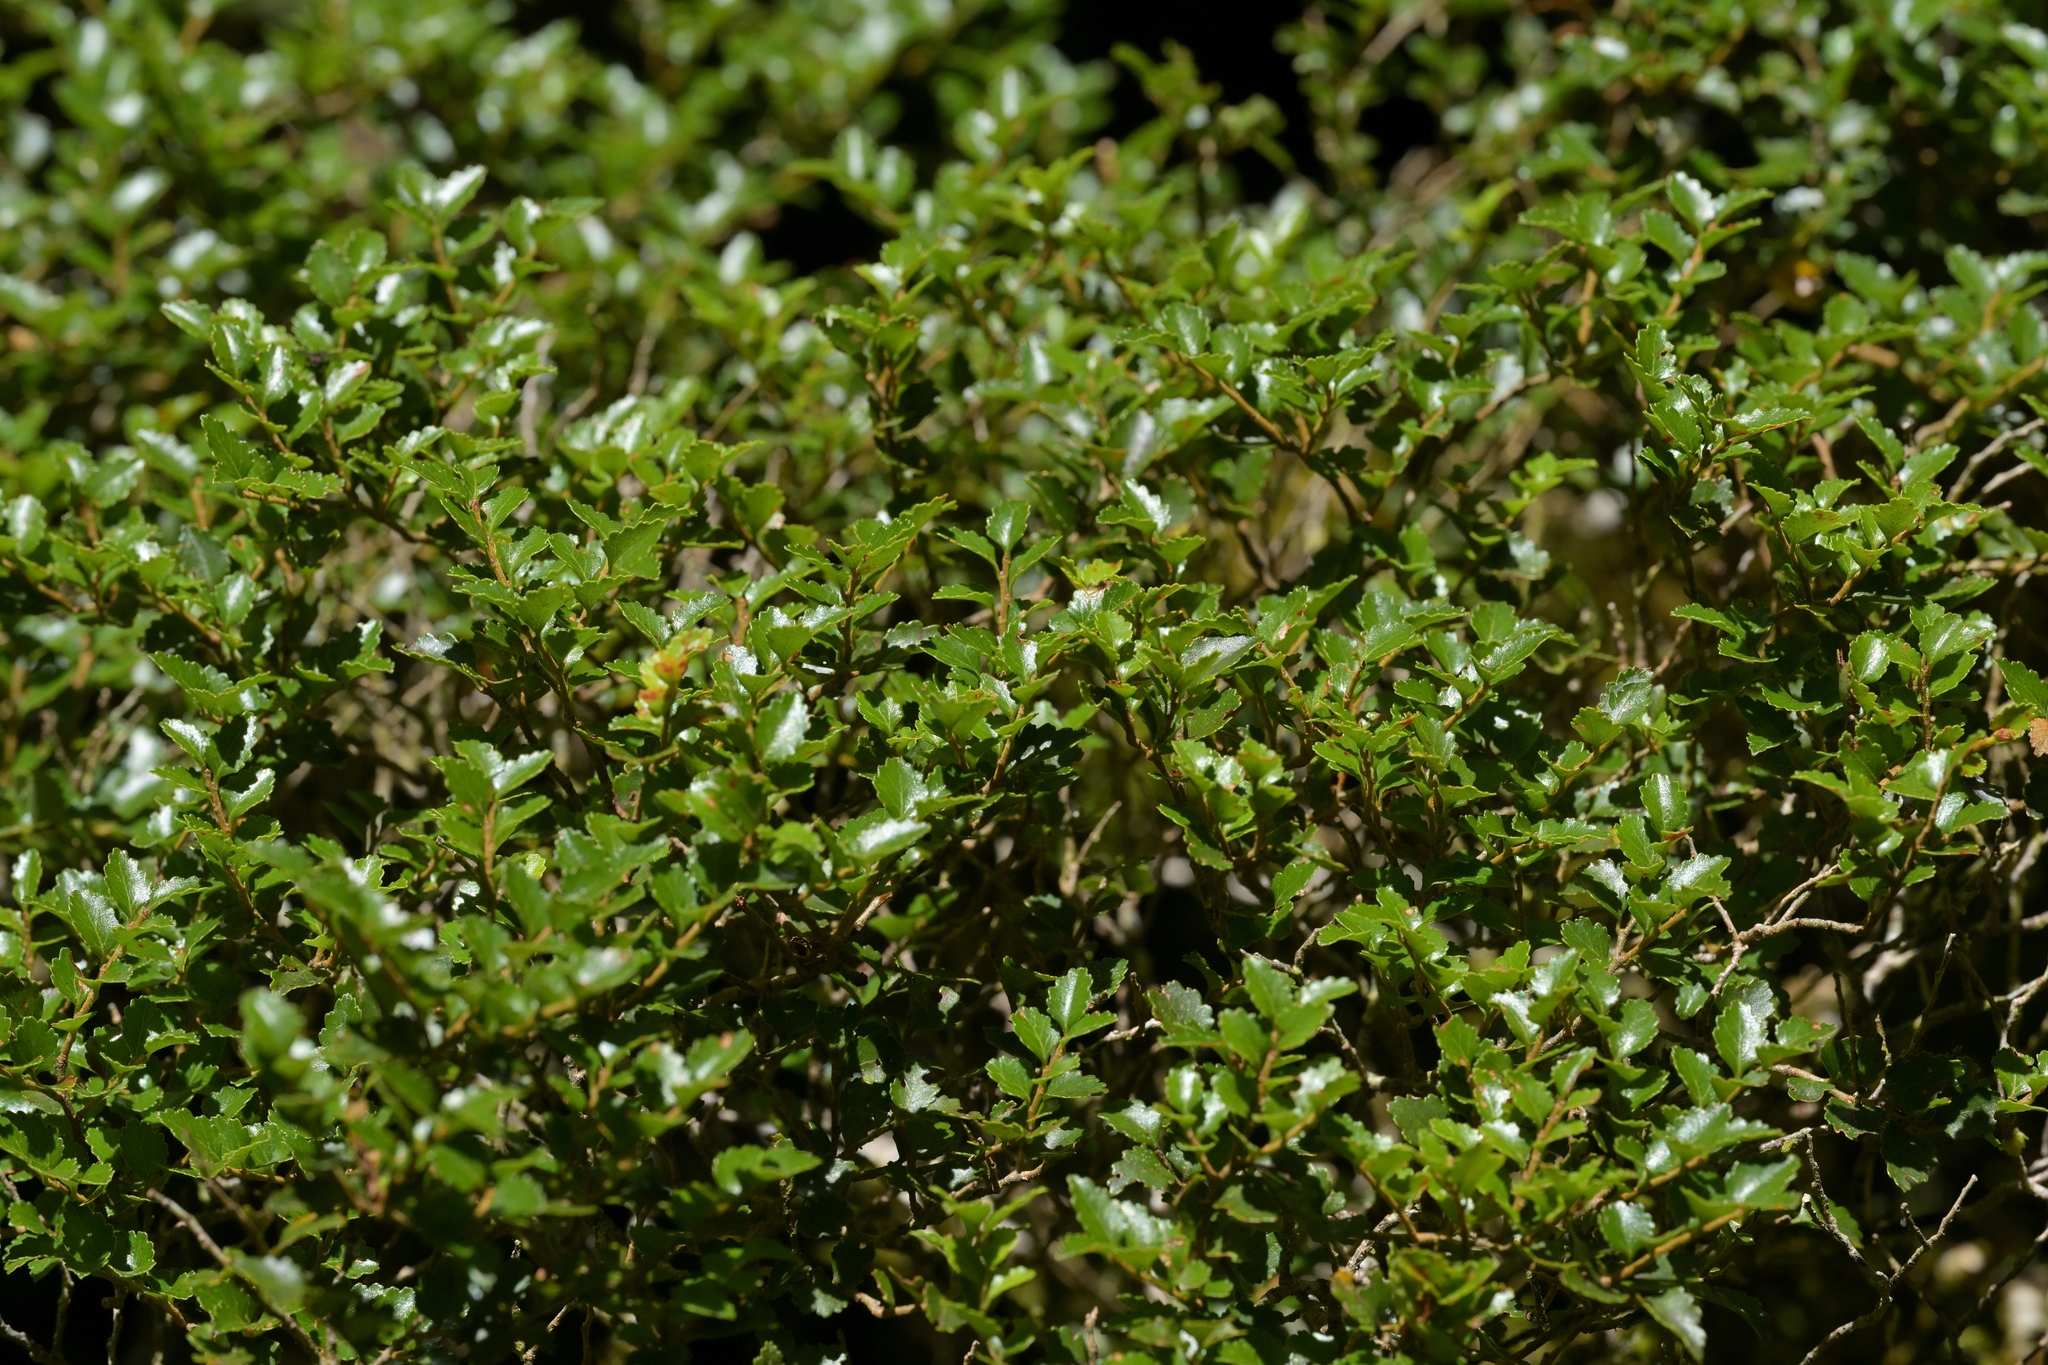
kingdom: Plantae
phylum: Tracheophyta
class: Magnoliopsida
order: Fagales
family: Nothofagaceae
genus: Nothofagus
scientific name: Nothofagus menziesii
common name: Silver beech
